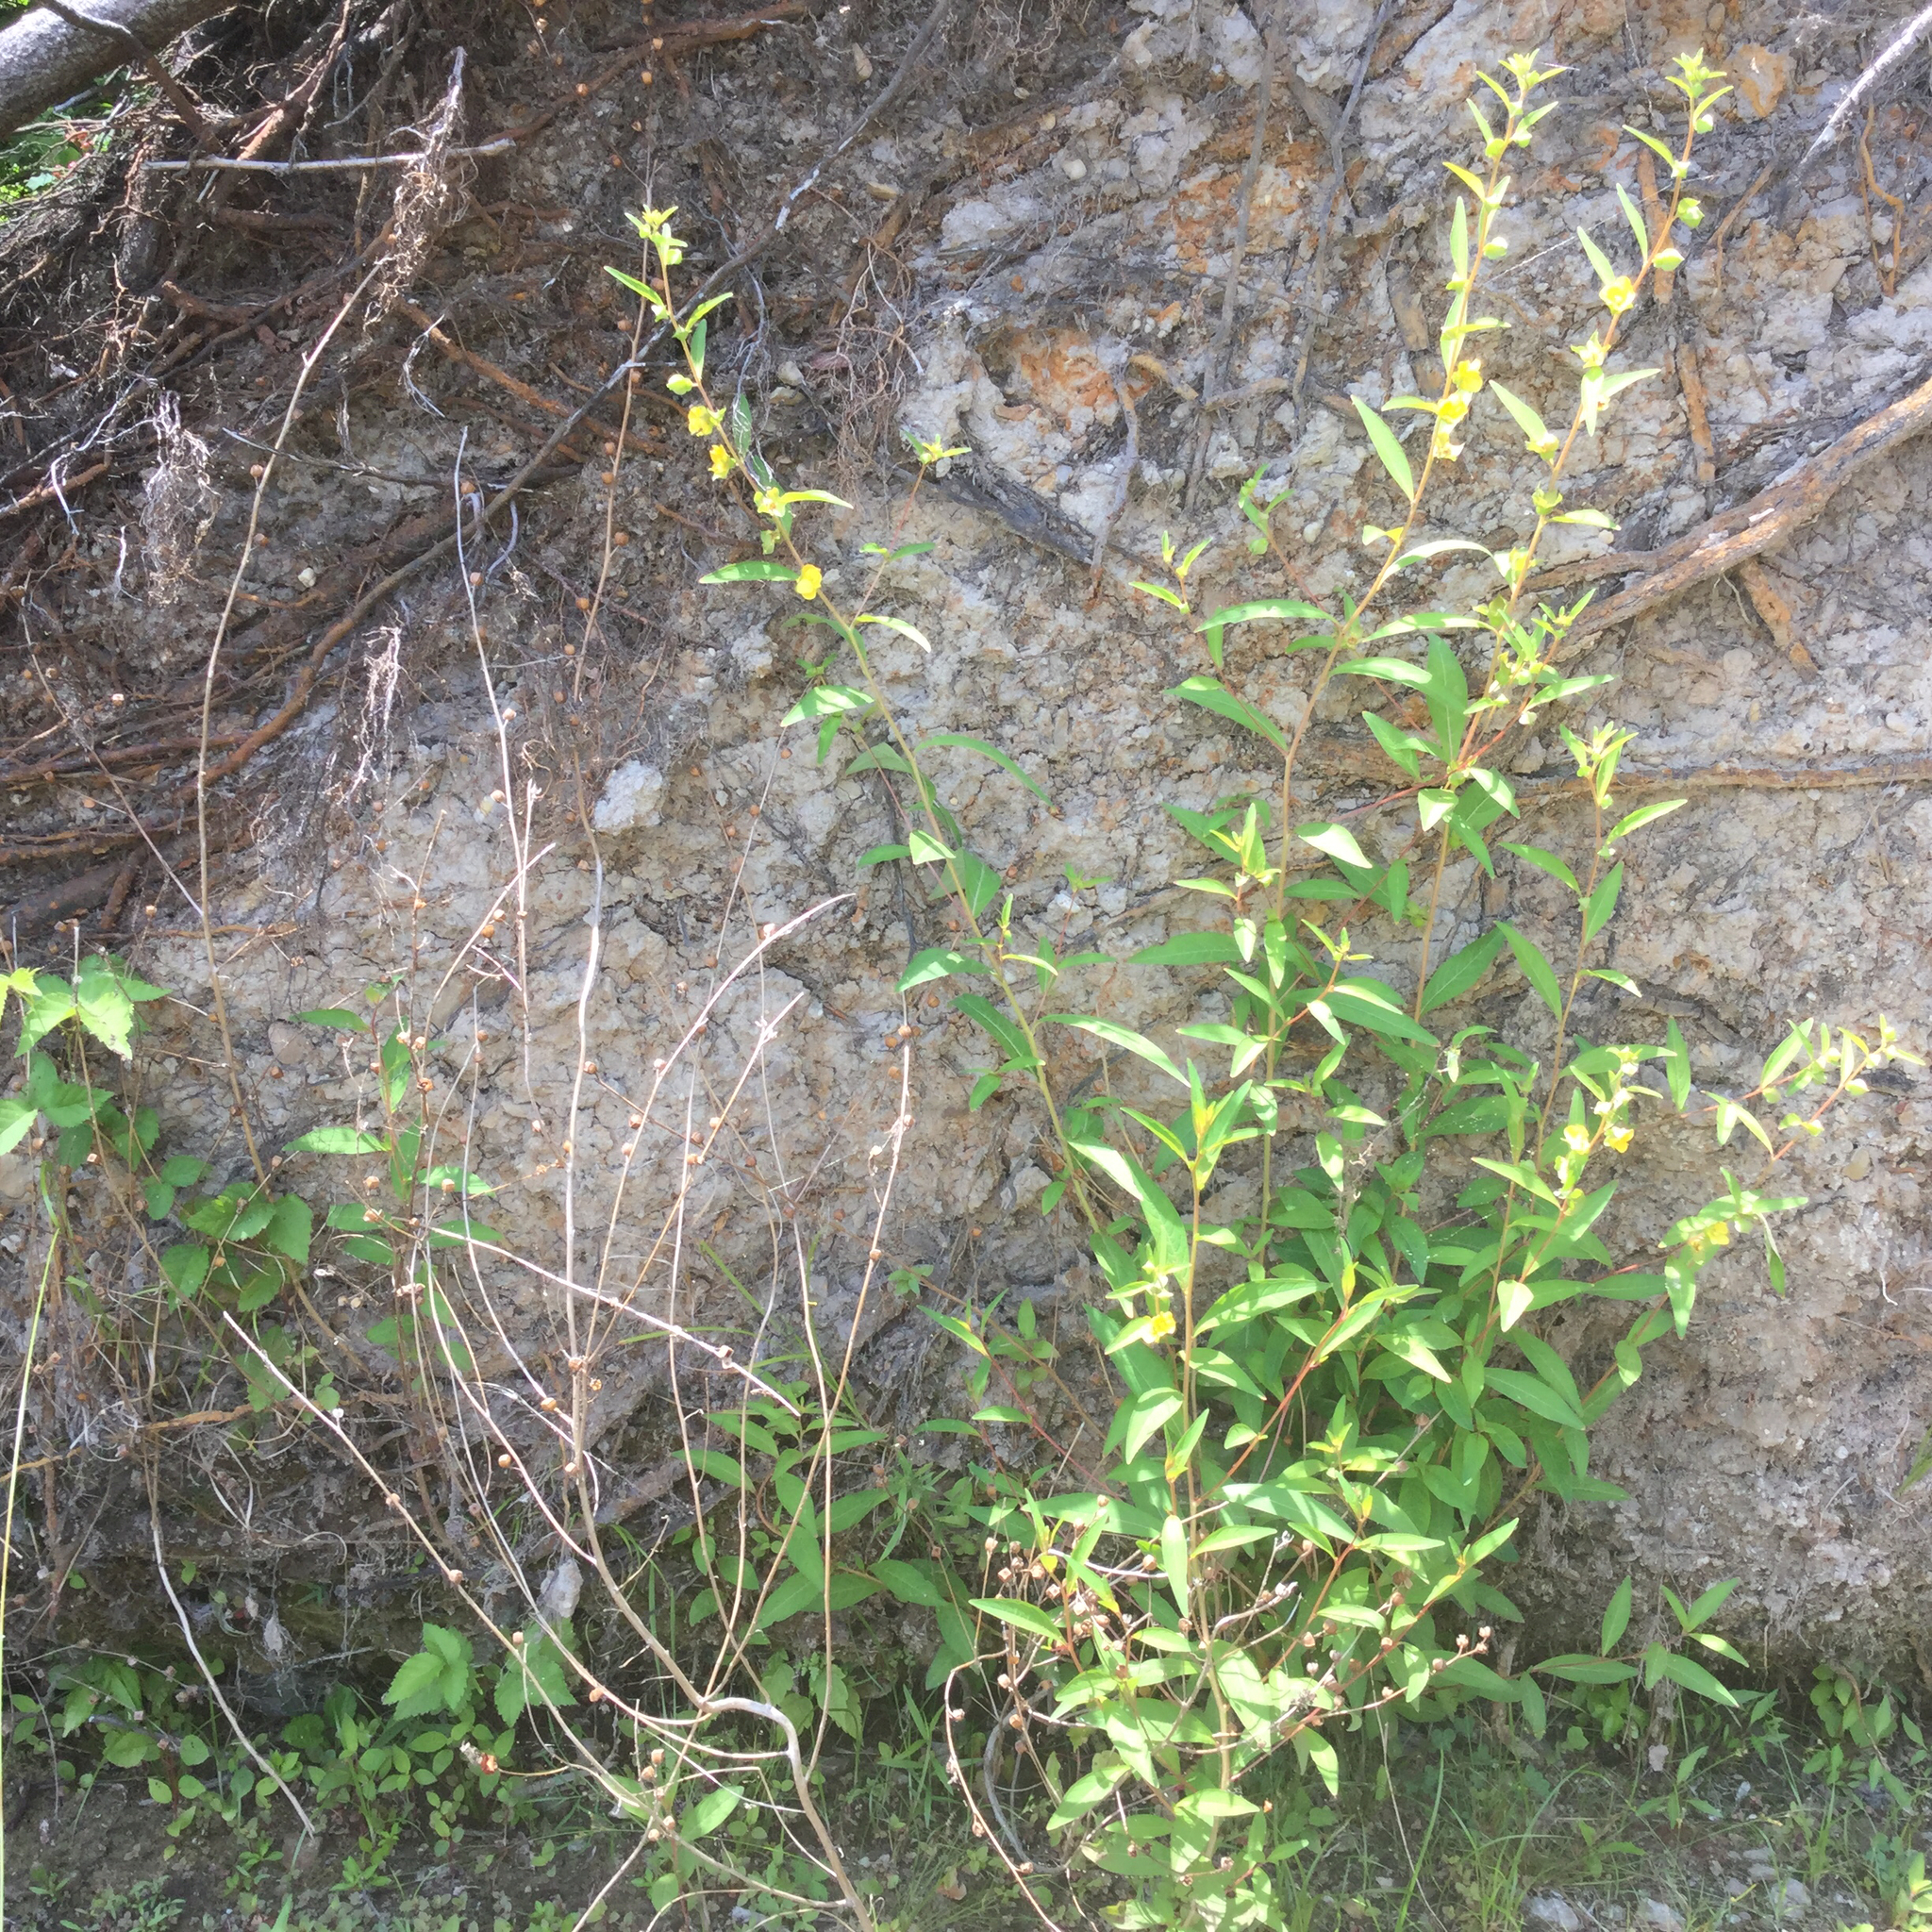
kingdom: Plantae
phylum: Tracheophyta
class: Magnoliopsida
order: Myrtales
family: Onagraceae
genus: Ludwigia
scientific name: Ludwigia alternifolia
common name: Rattlebox
